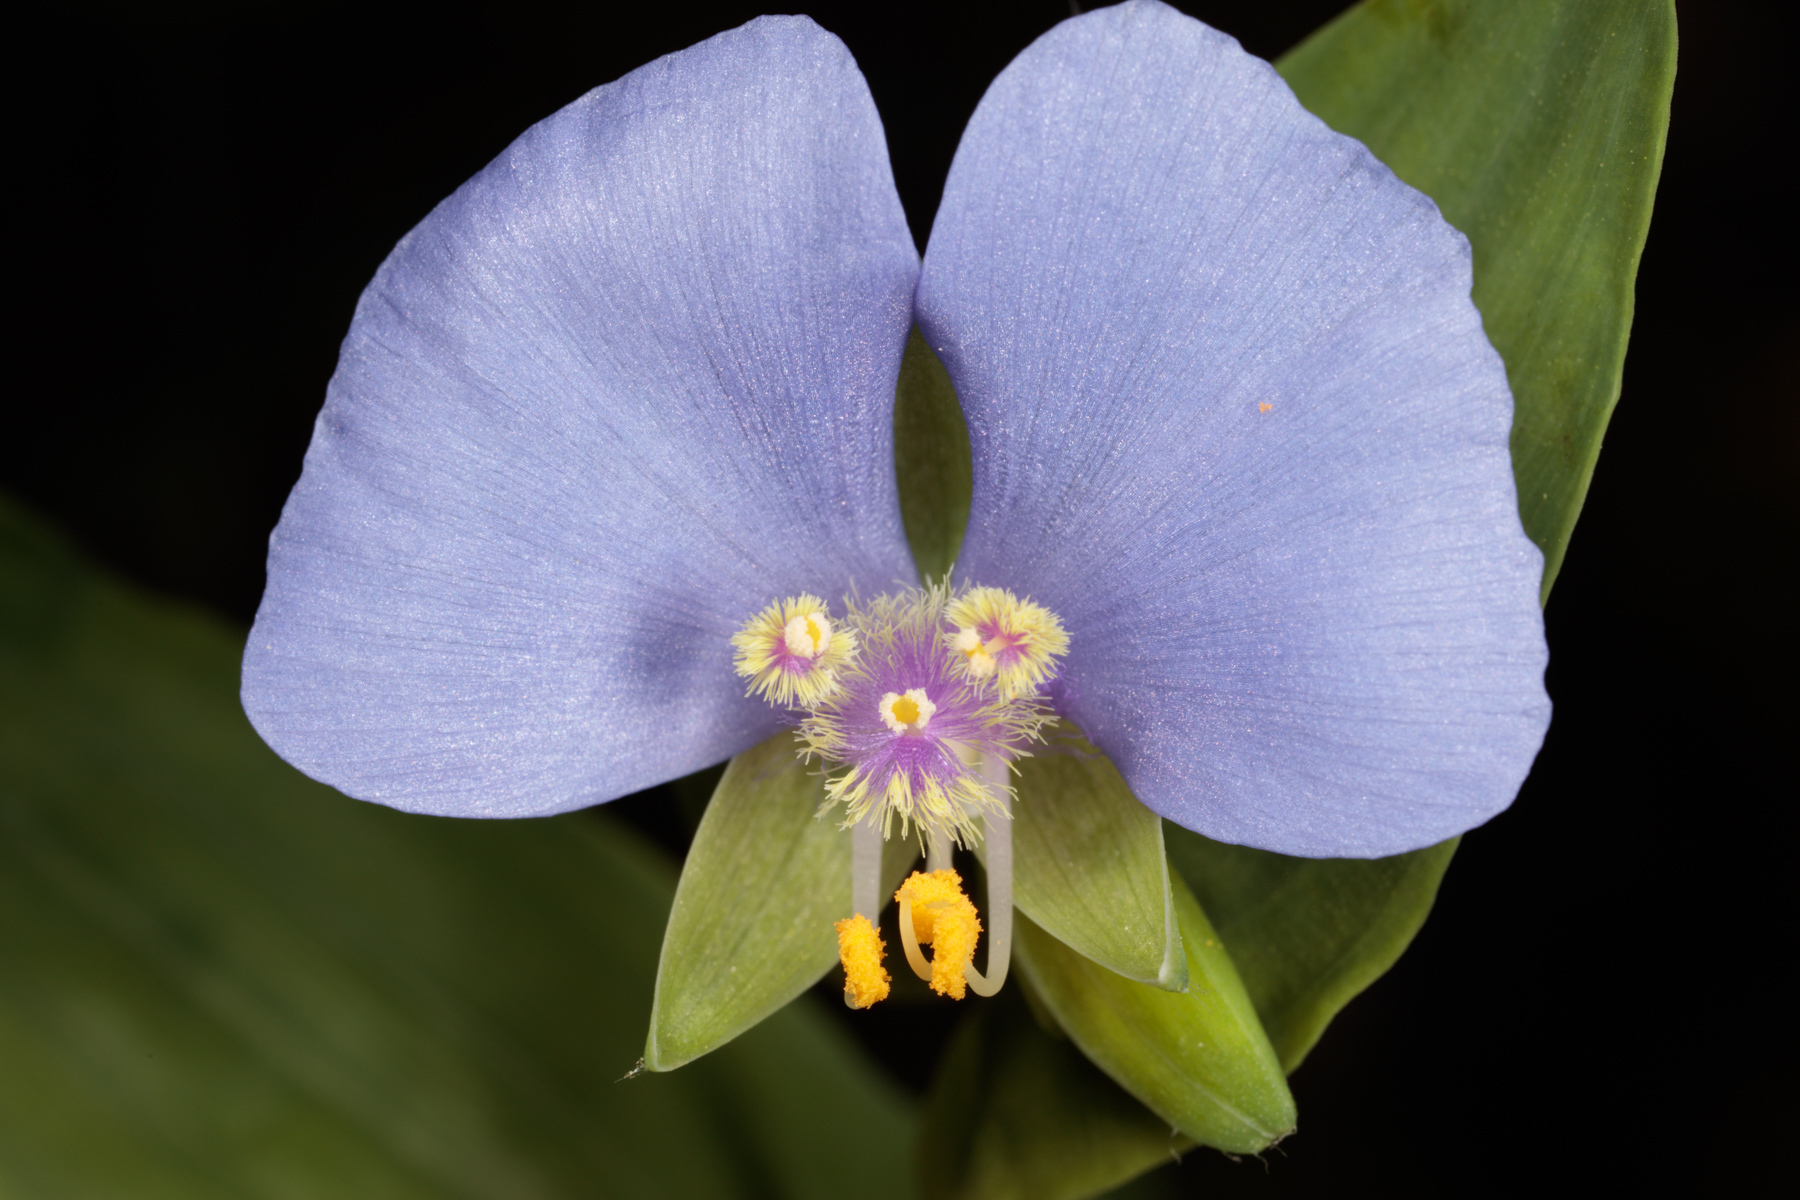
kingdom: Plantae
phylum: Tracheophyta
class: Liliopsida
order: Commelinales
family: Commelinaceae
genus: Tinantia
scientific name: Tinantia anomala
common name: False dayflower
